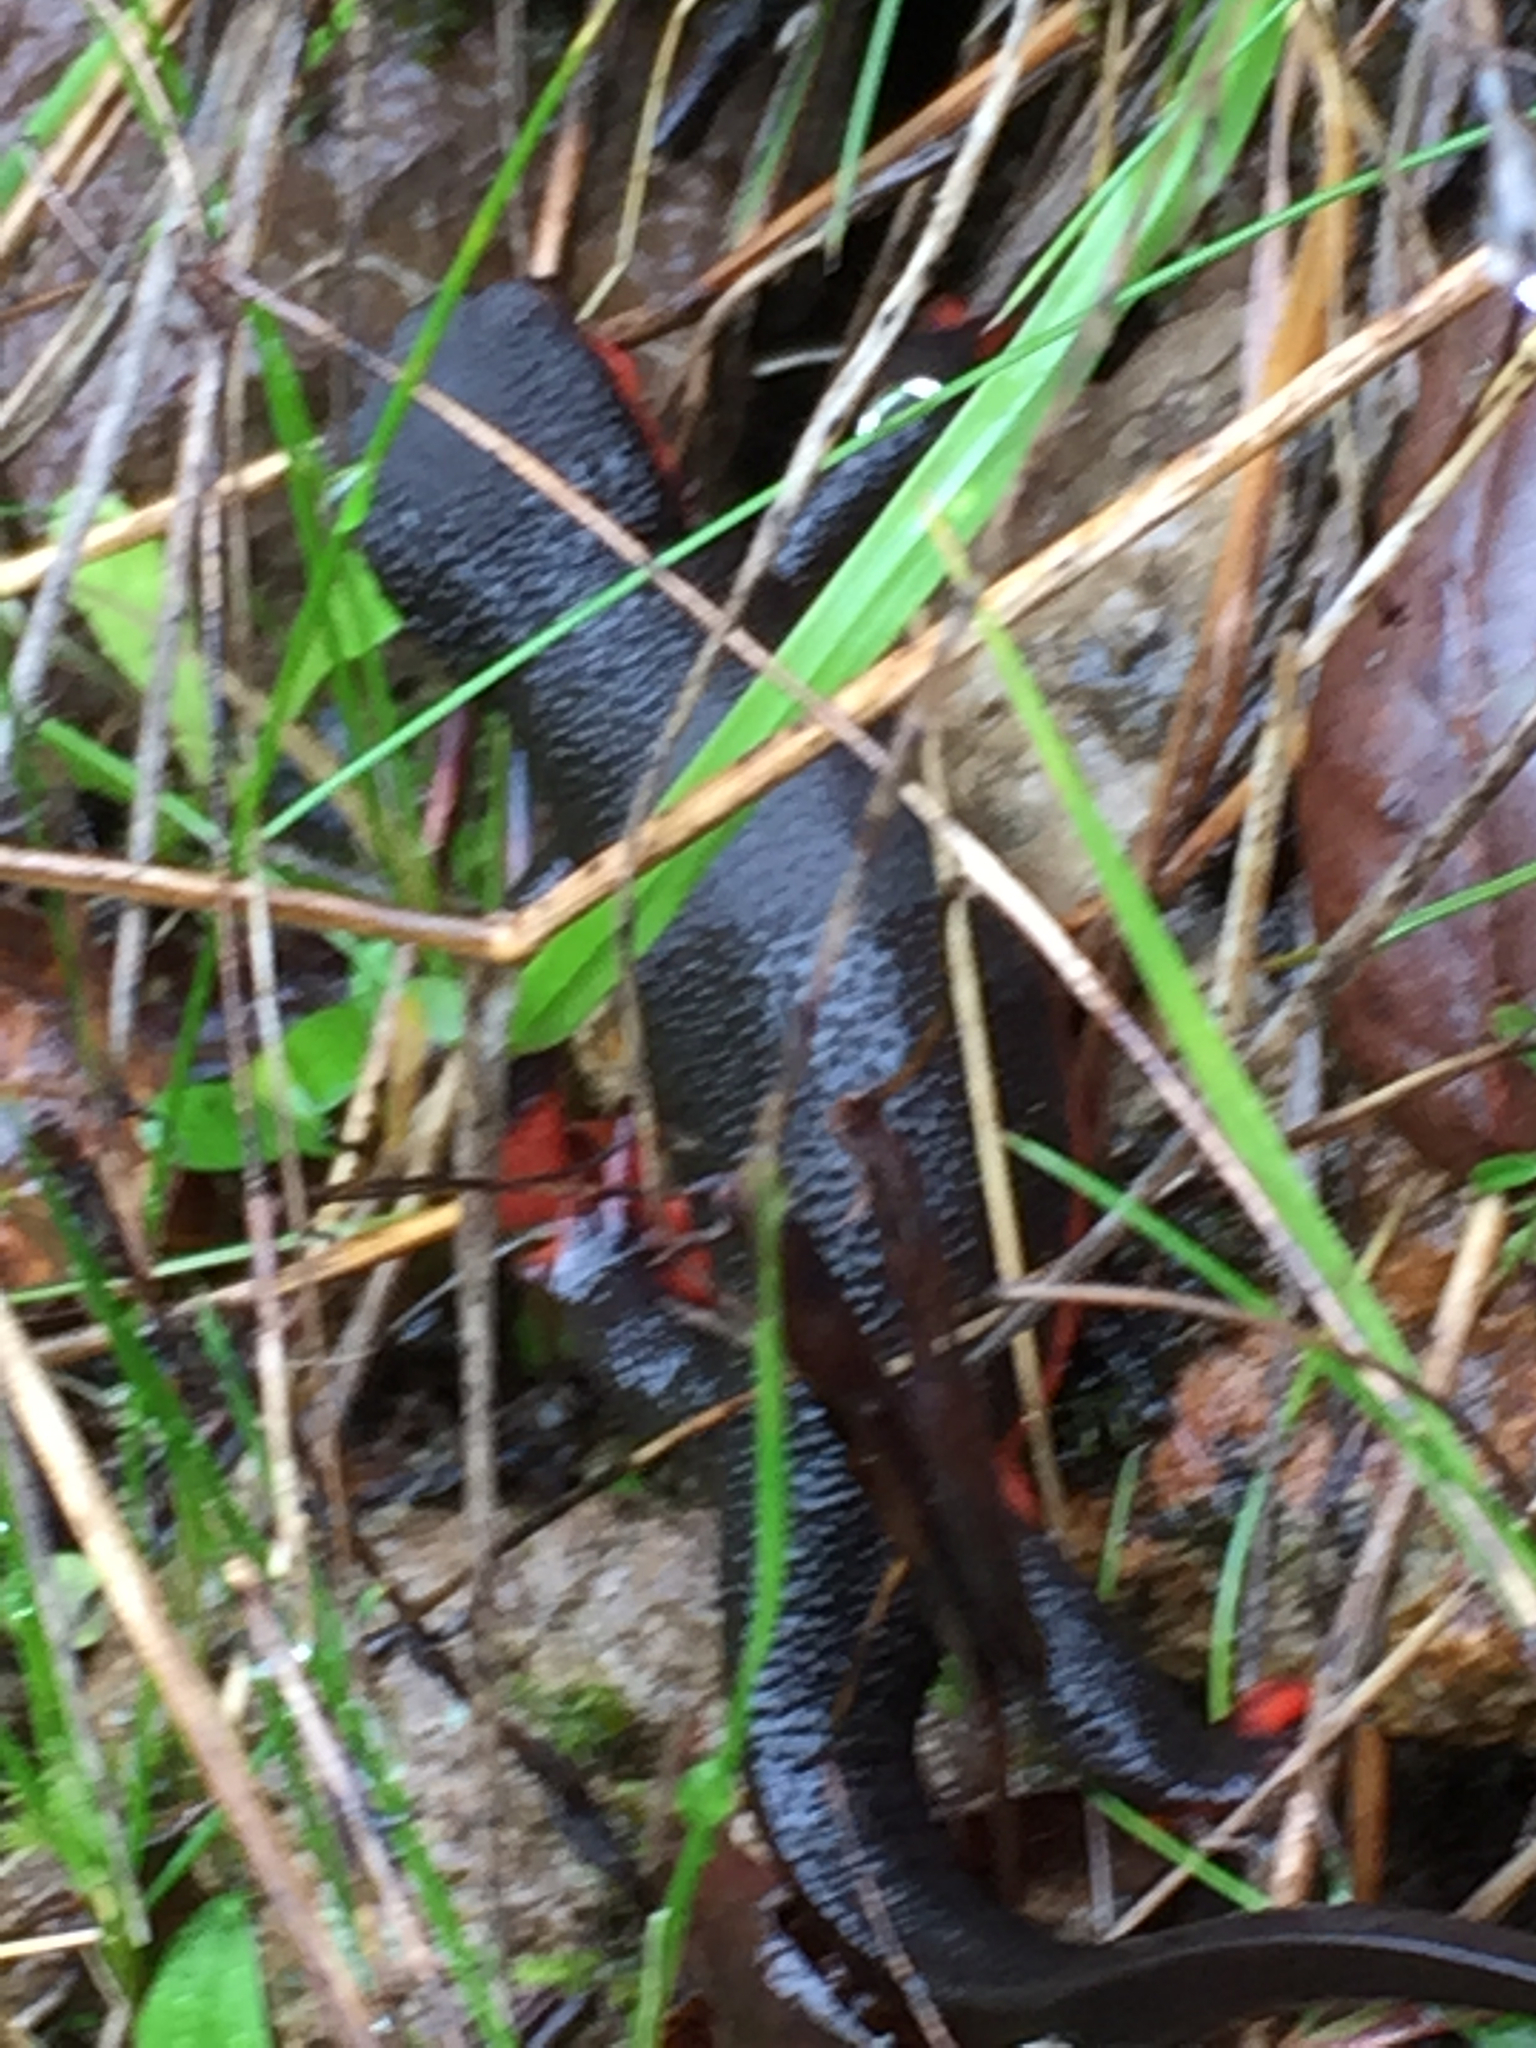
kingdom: Animalia
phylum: Chordata
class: Amphibia
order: Caudata
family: Salamandridae
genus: Taricha
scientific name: Taricha rivularis
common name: Red-bellied newt
